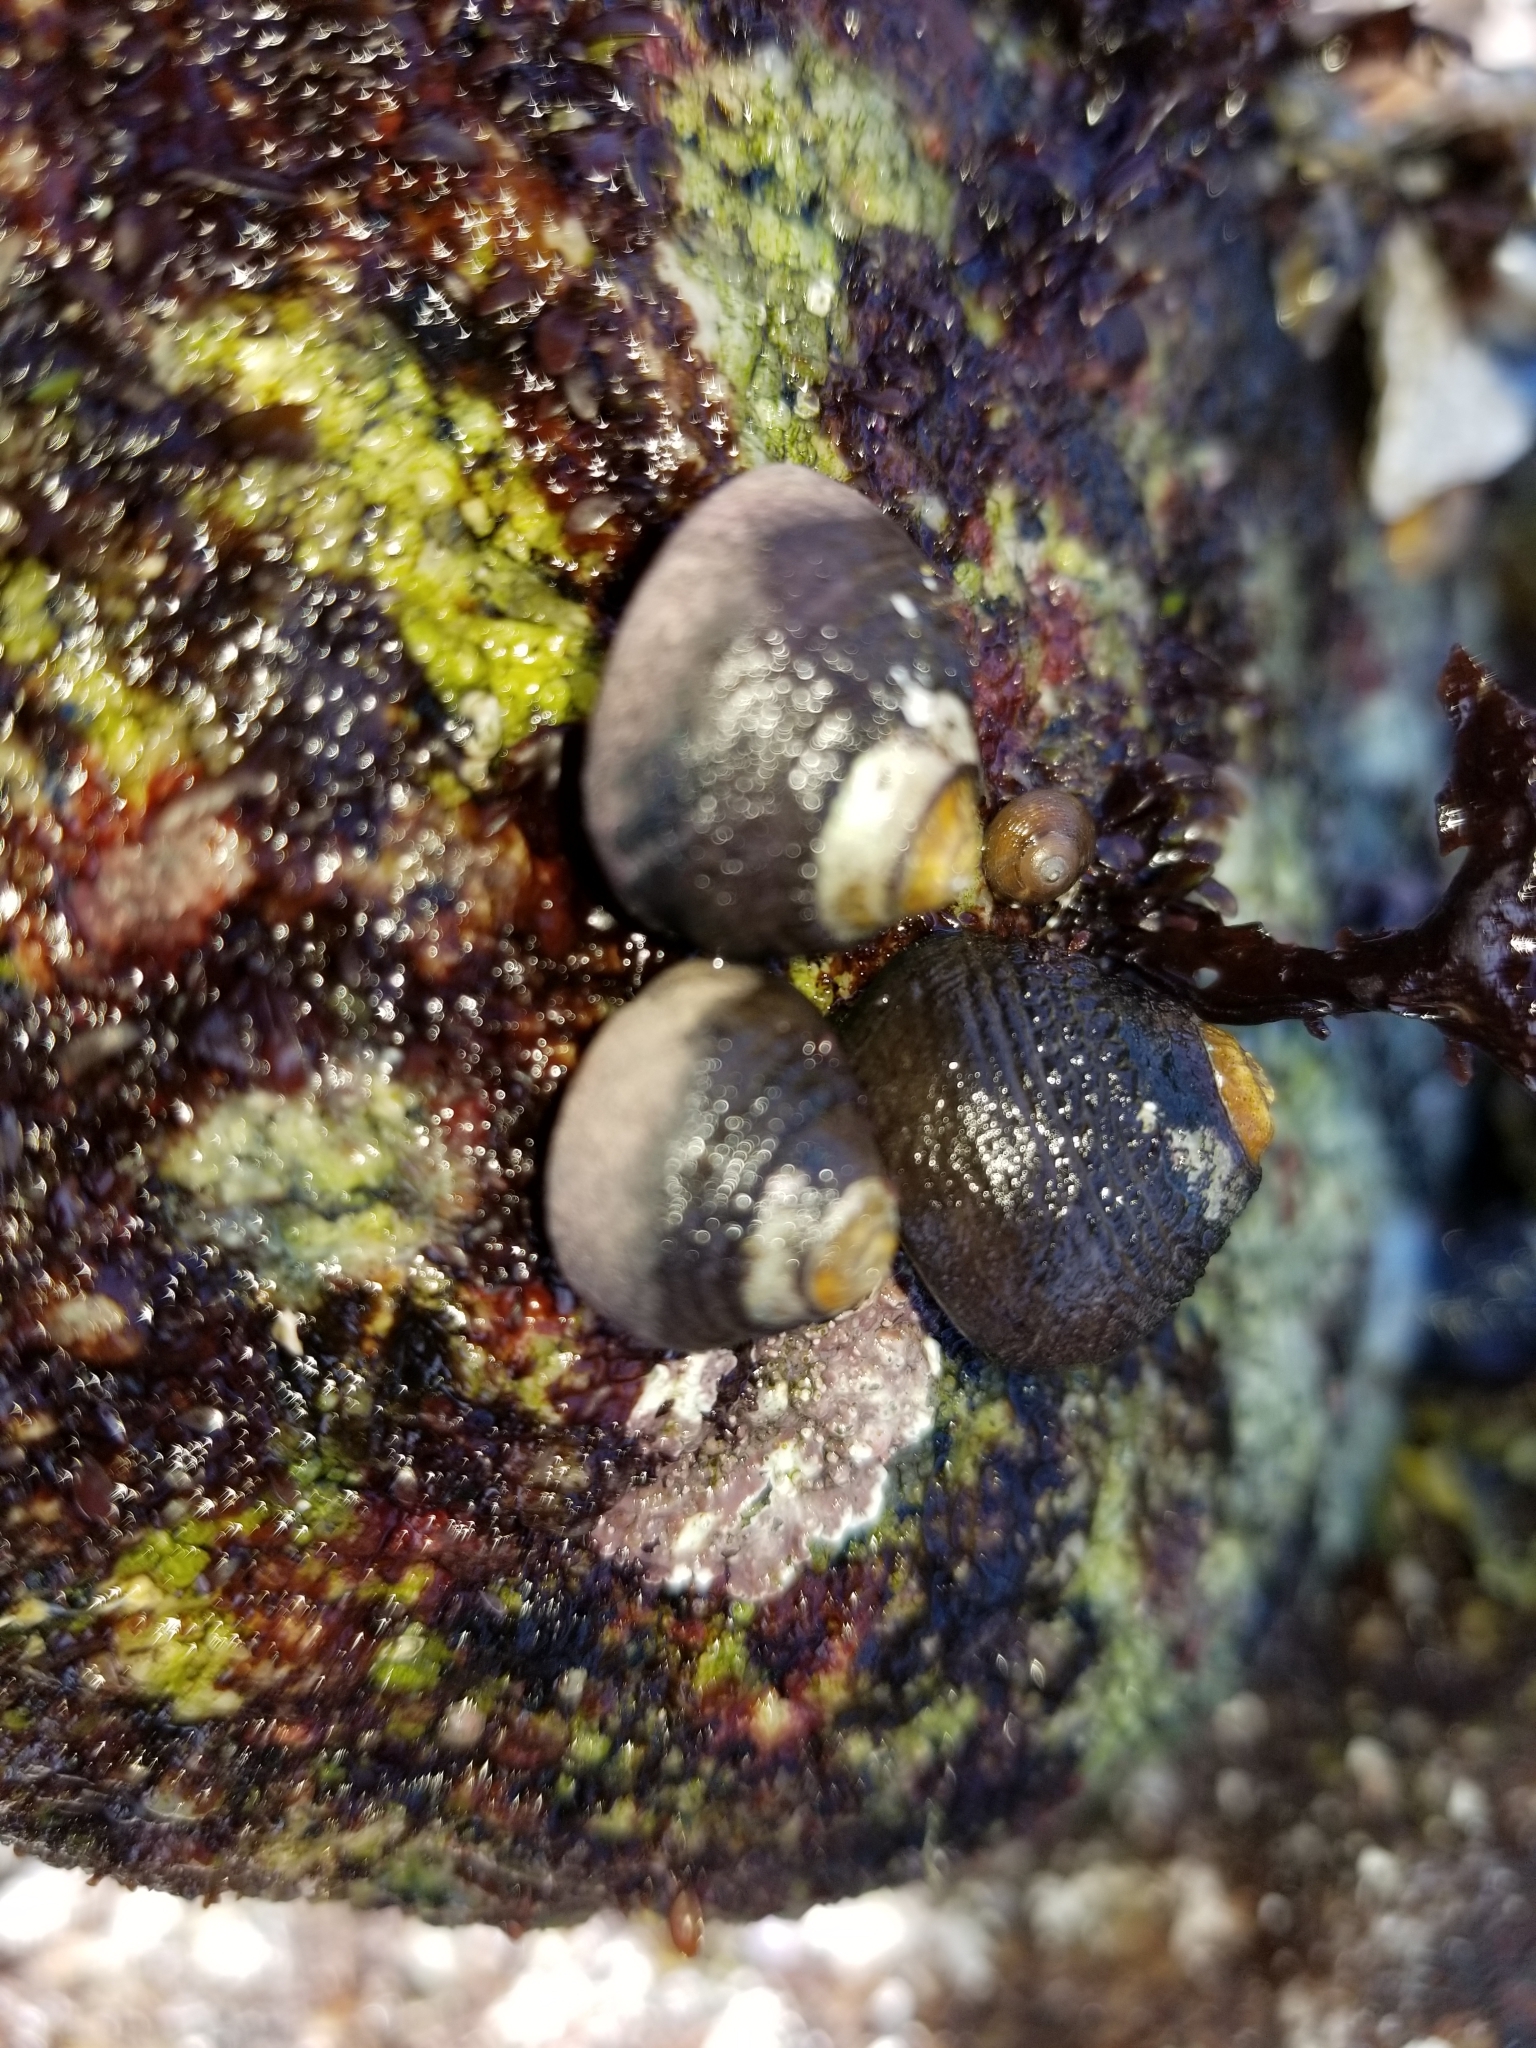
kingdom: Animalia
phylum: Mollusca
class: Gastropoda
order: Trochida
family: Tegulidae
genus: Tegula
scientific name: Tegula funebralis
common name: Black tegula
